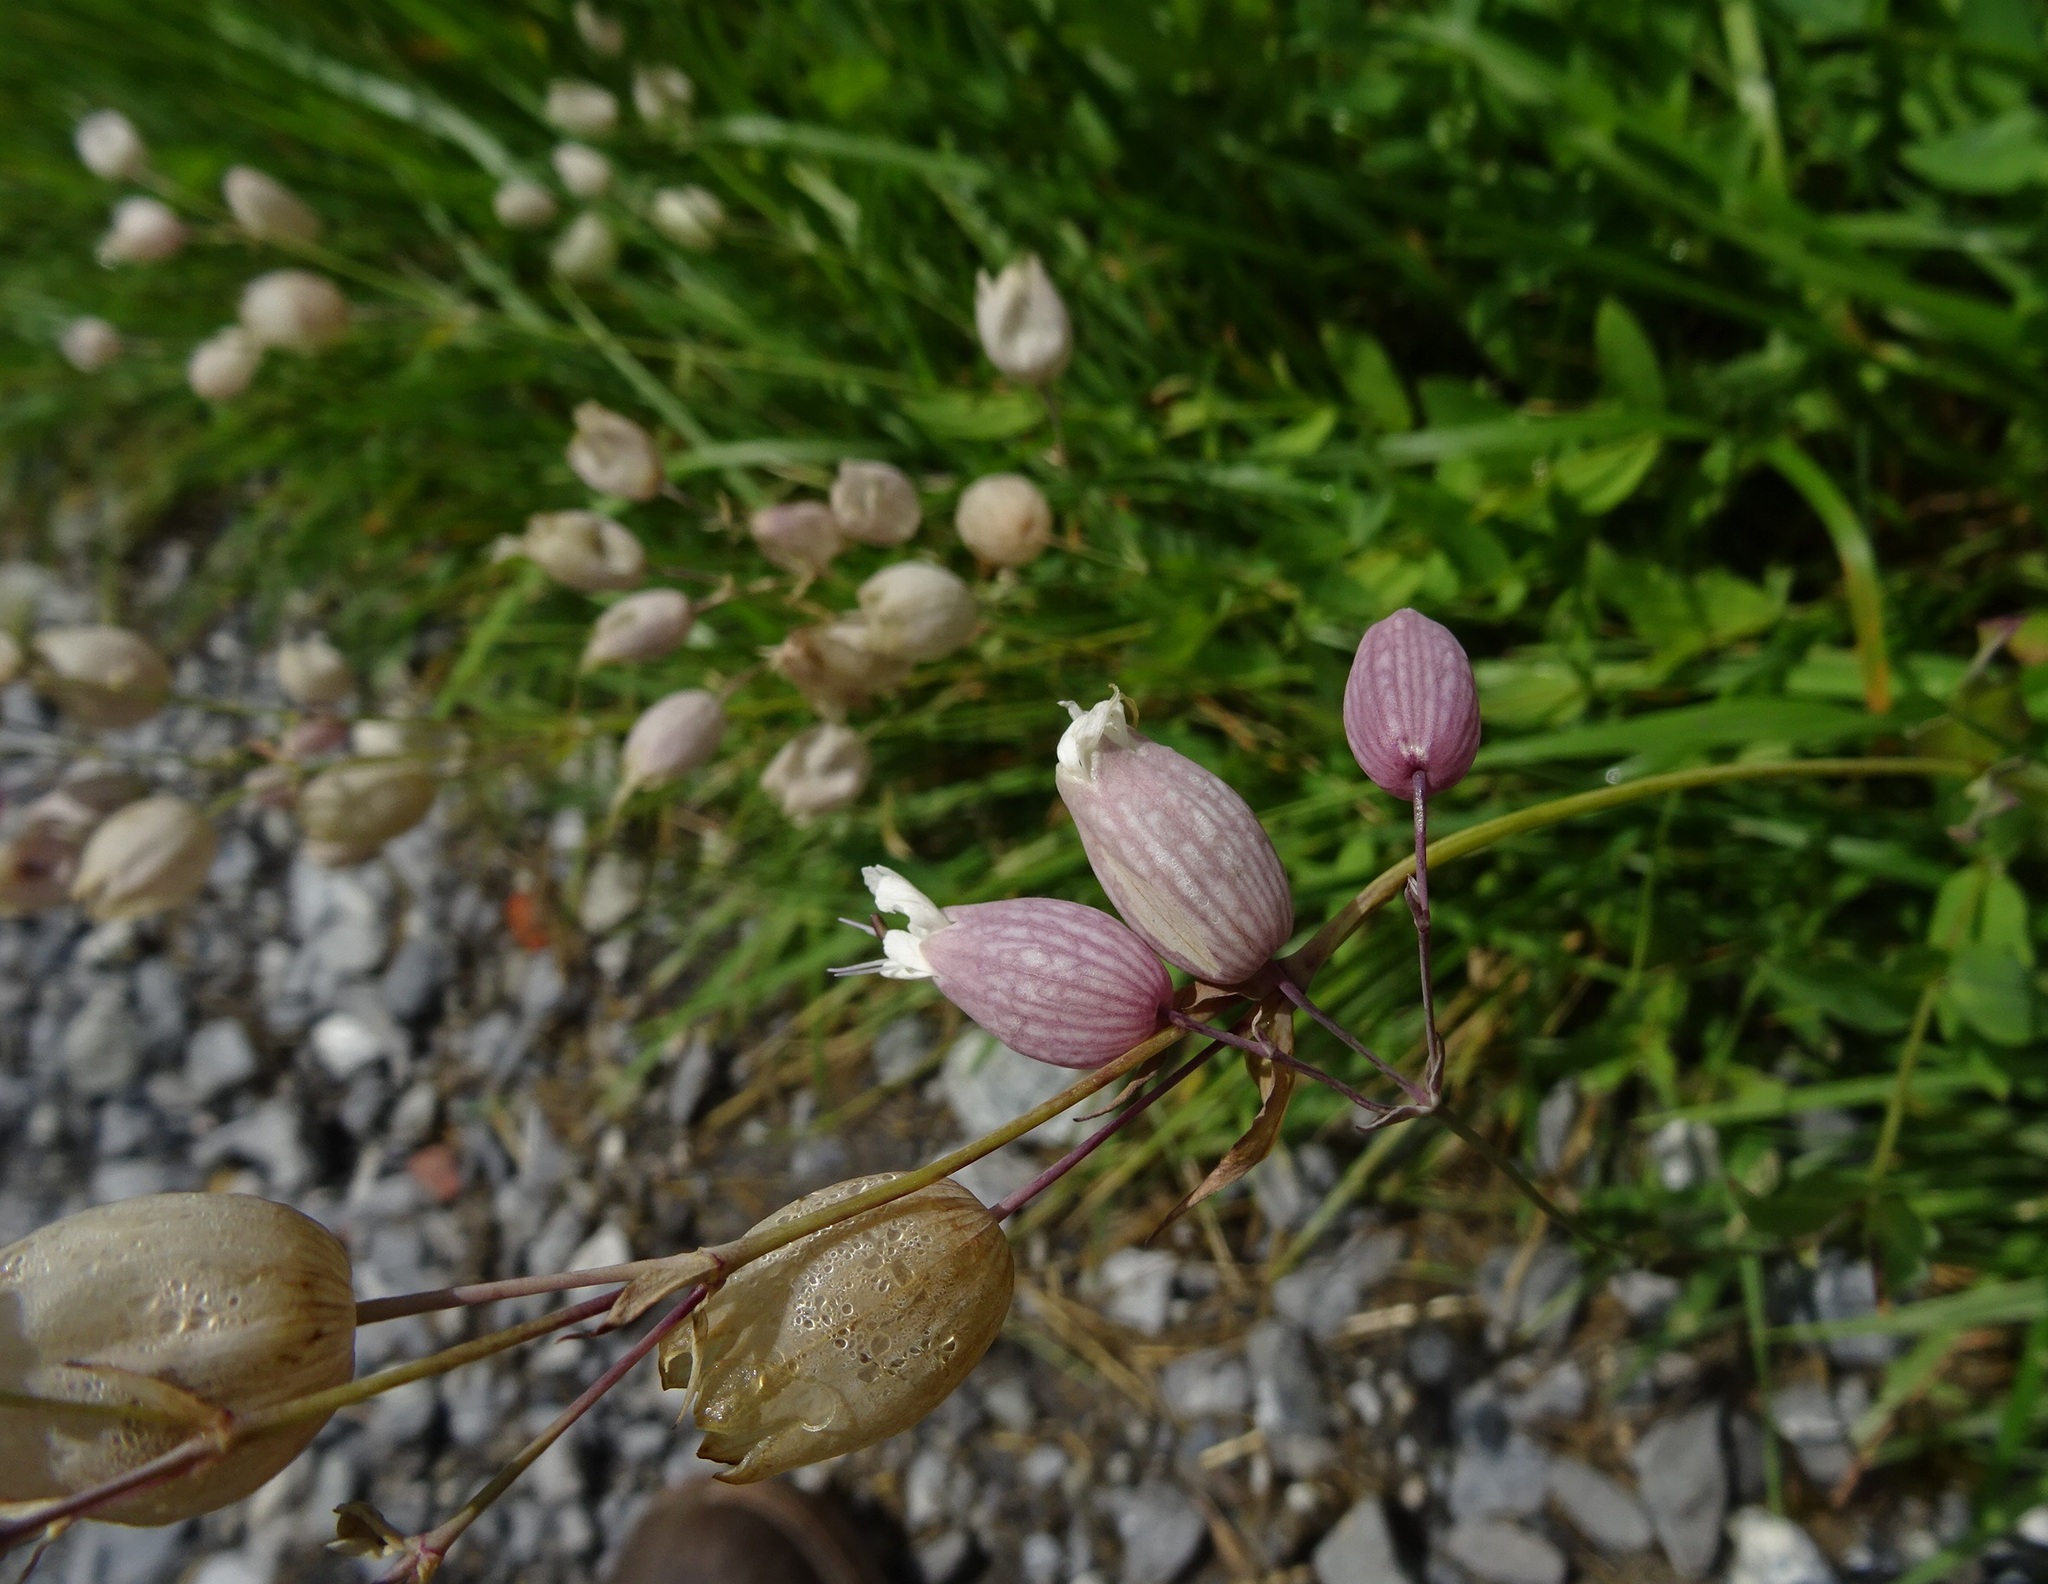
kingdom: Plantae
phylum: Tracheophyta
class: Magnoliopsida
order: Caryophyllales
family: Caryophyllaceae
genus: Silene
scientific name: Silene vulgaris
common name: Bladder campion
